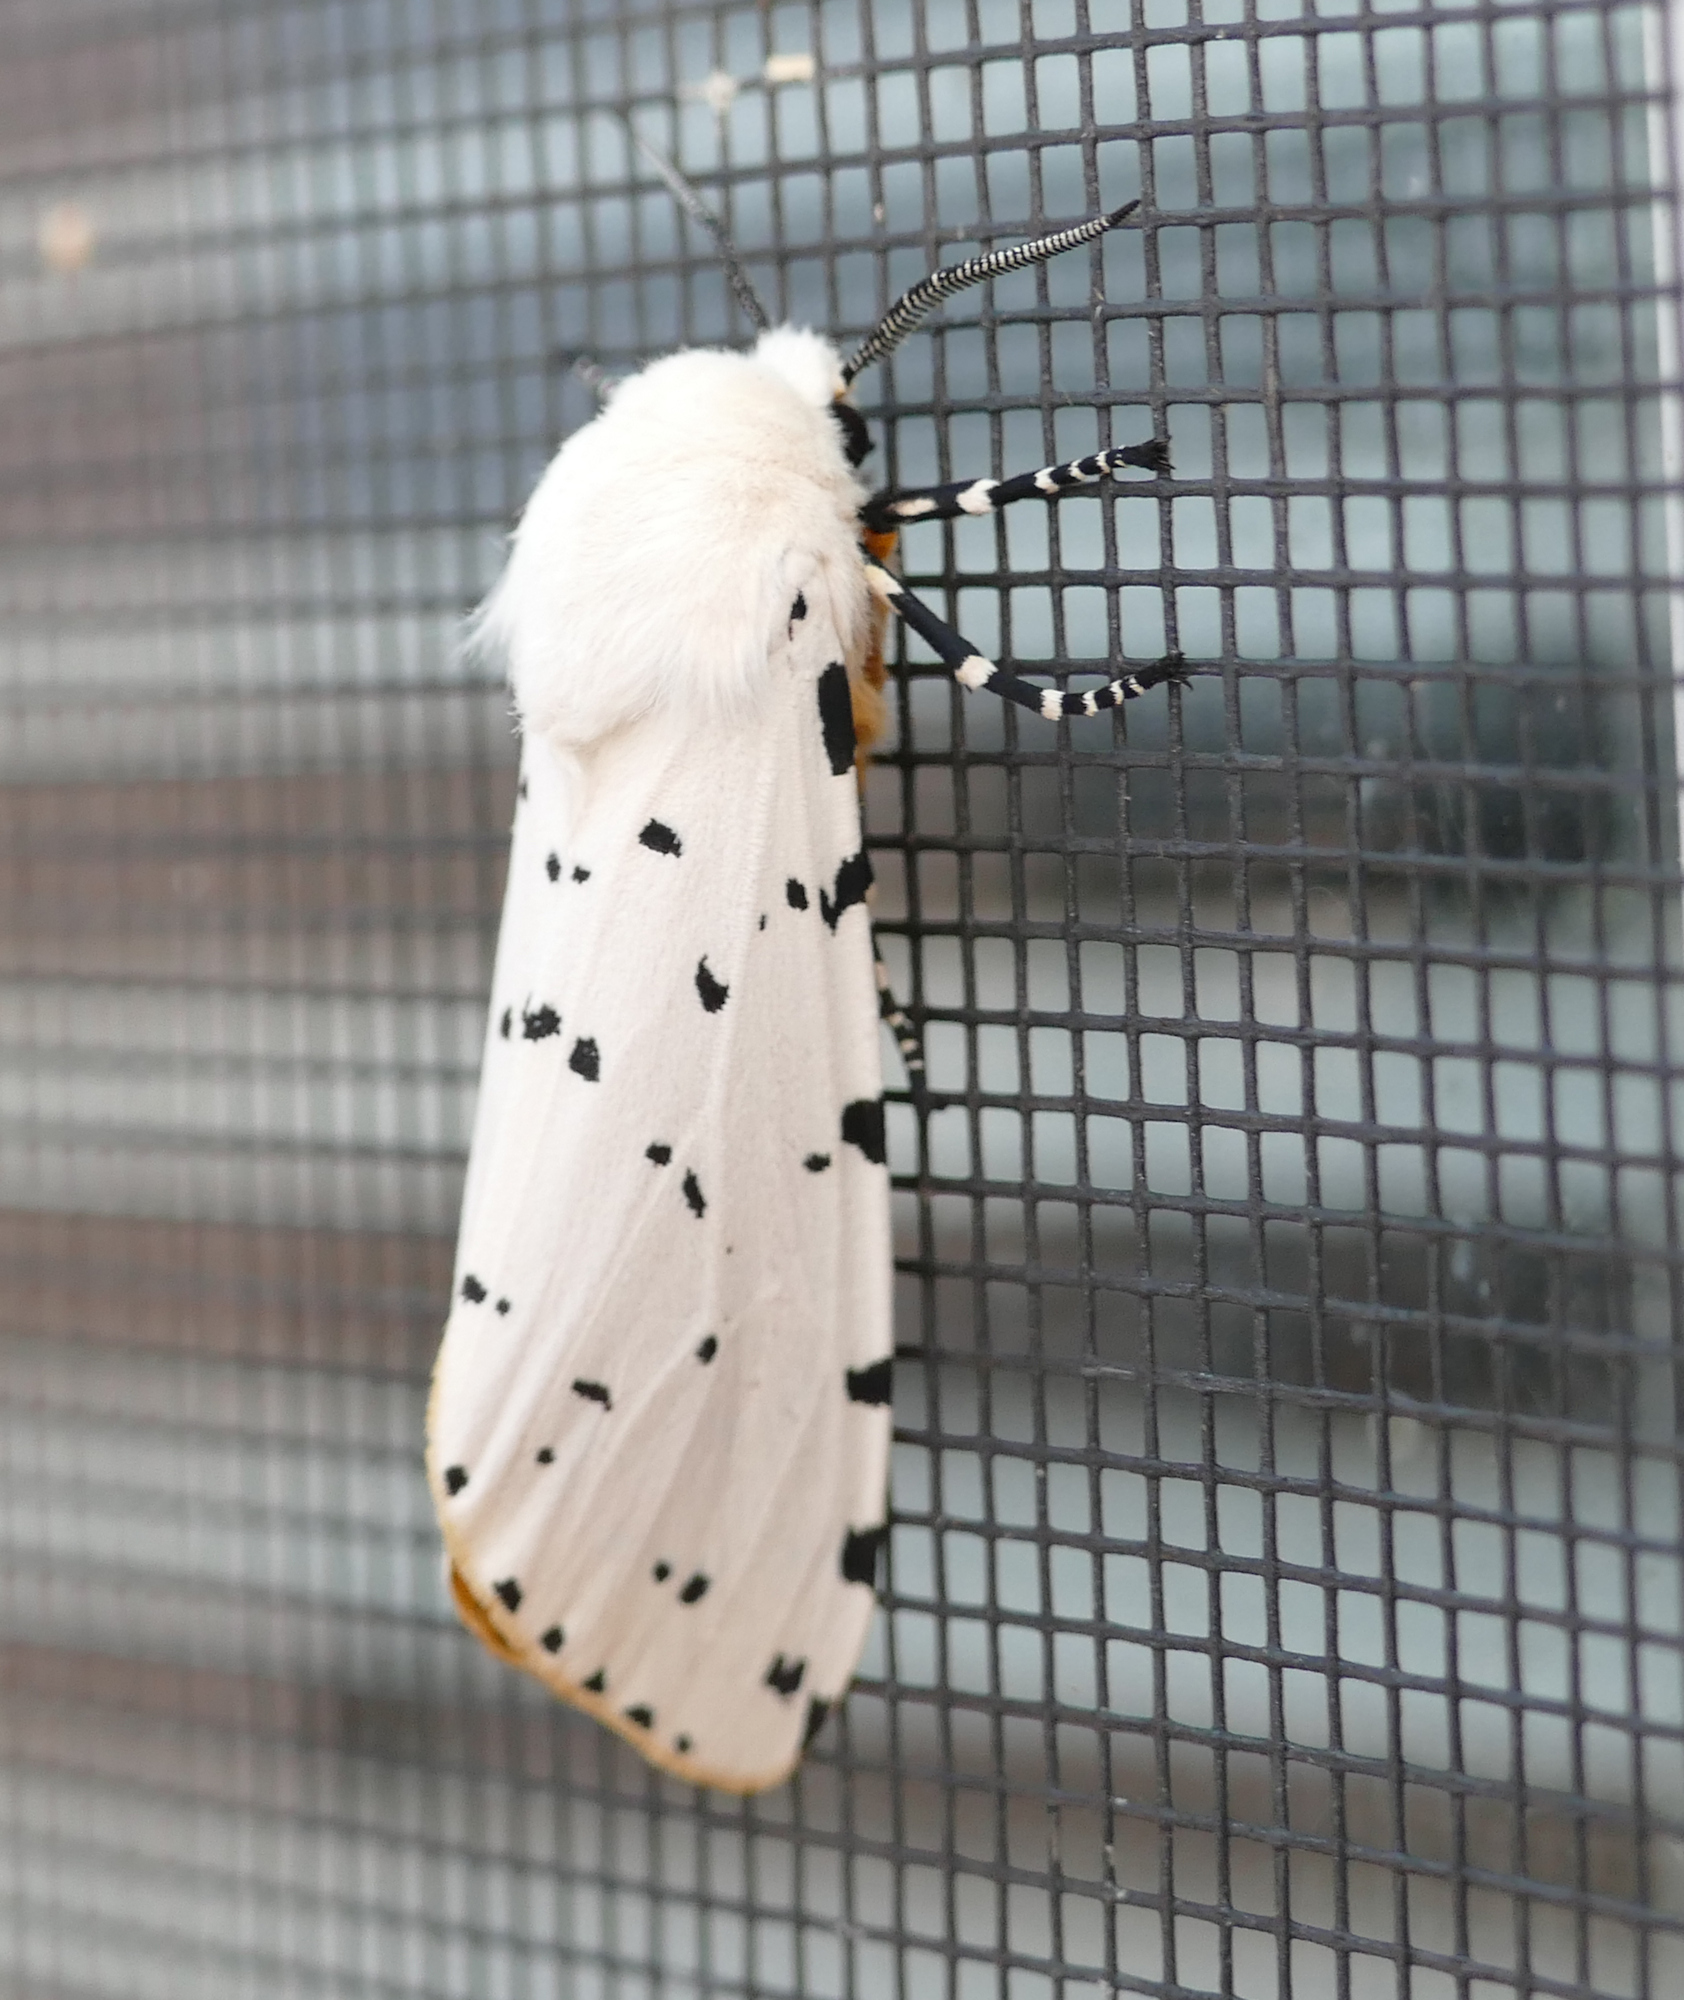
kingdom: Animalia
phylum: Arthropoda
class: Insecta
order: Lepidoptera
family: Erebidae
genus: Estigmene
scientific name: Estigmene acrea
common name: Salt marsh moth
